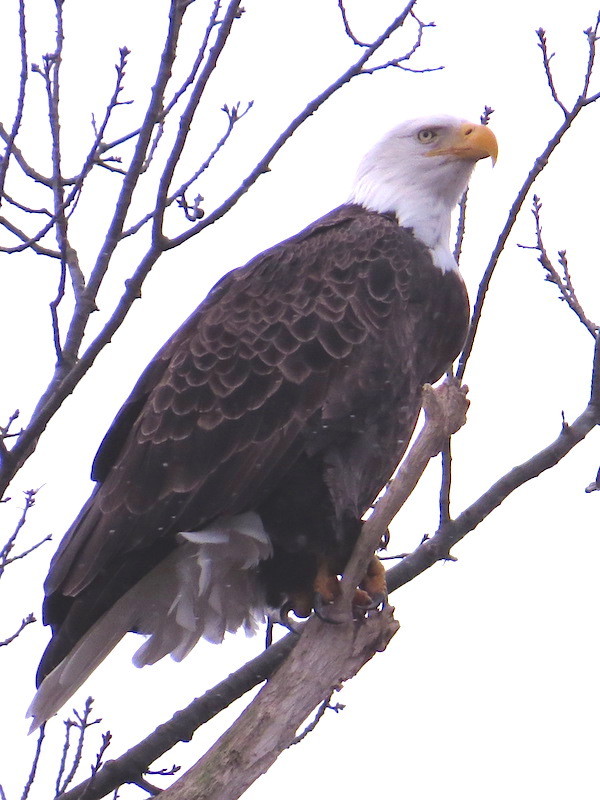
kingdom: Animalia
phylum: Chordata
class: Aves
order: Accipitriformes
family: Accipitridae
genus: Haliaeetus
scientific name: Haliaeetus leucocephalus
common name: Bald eagle
